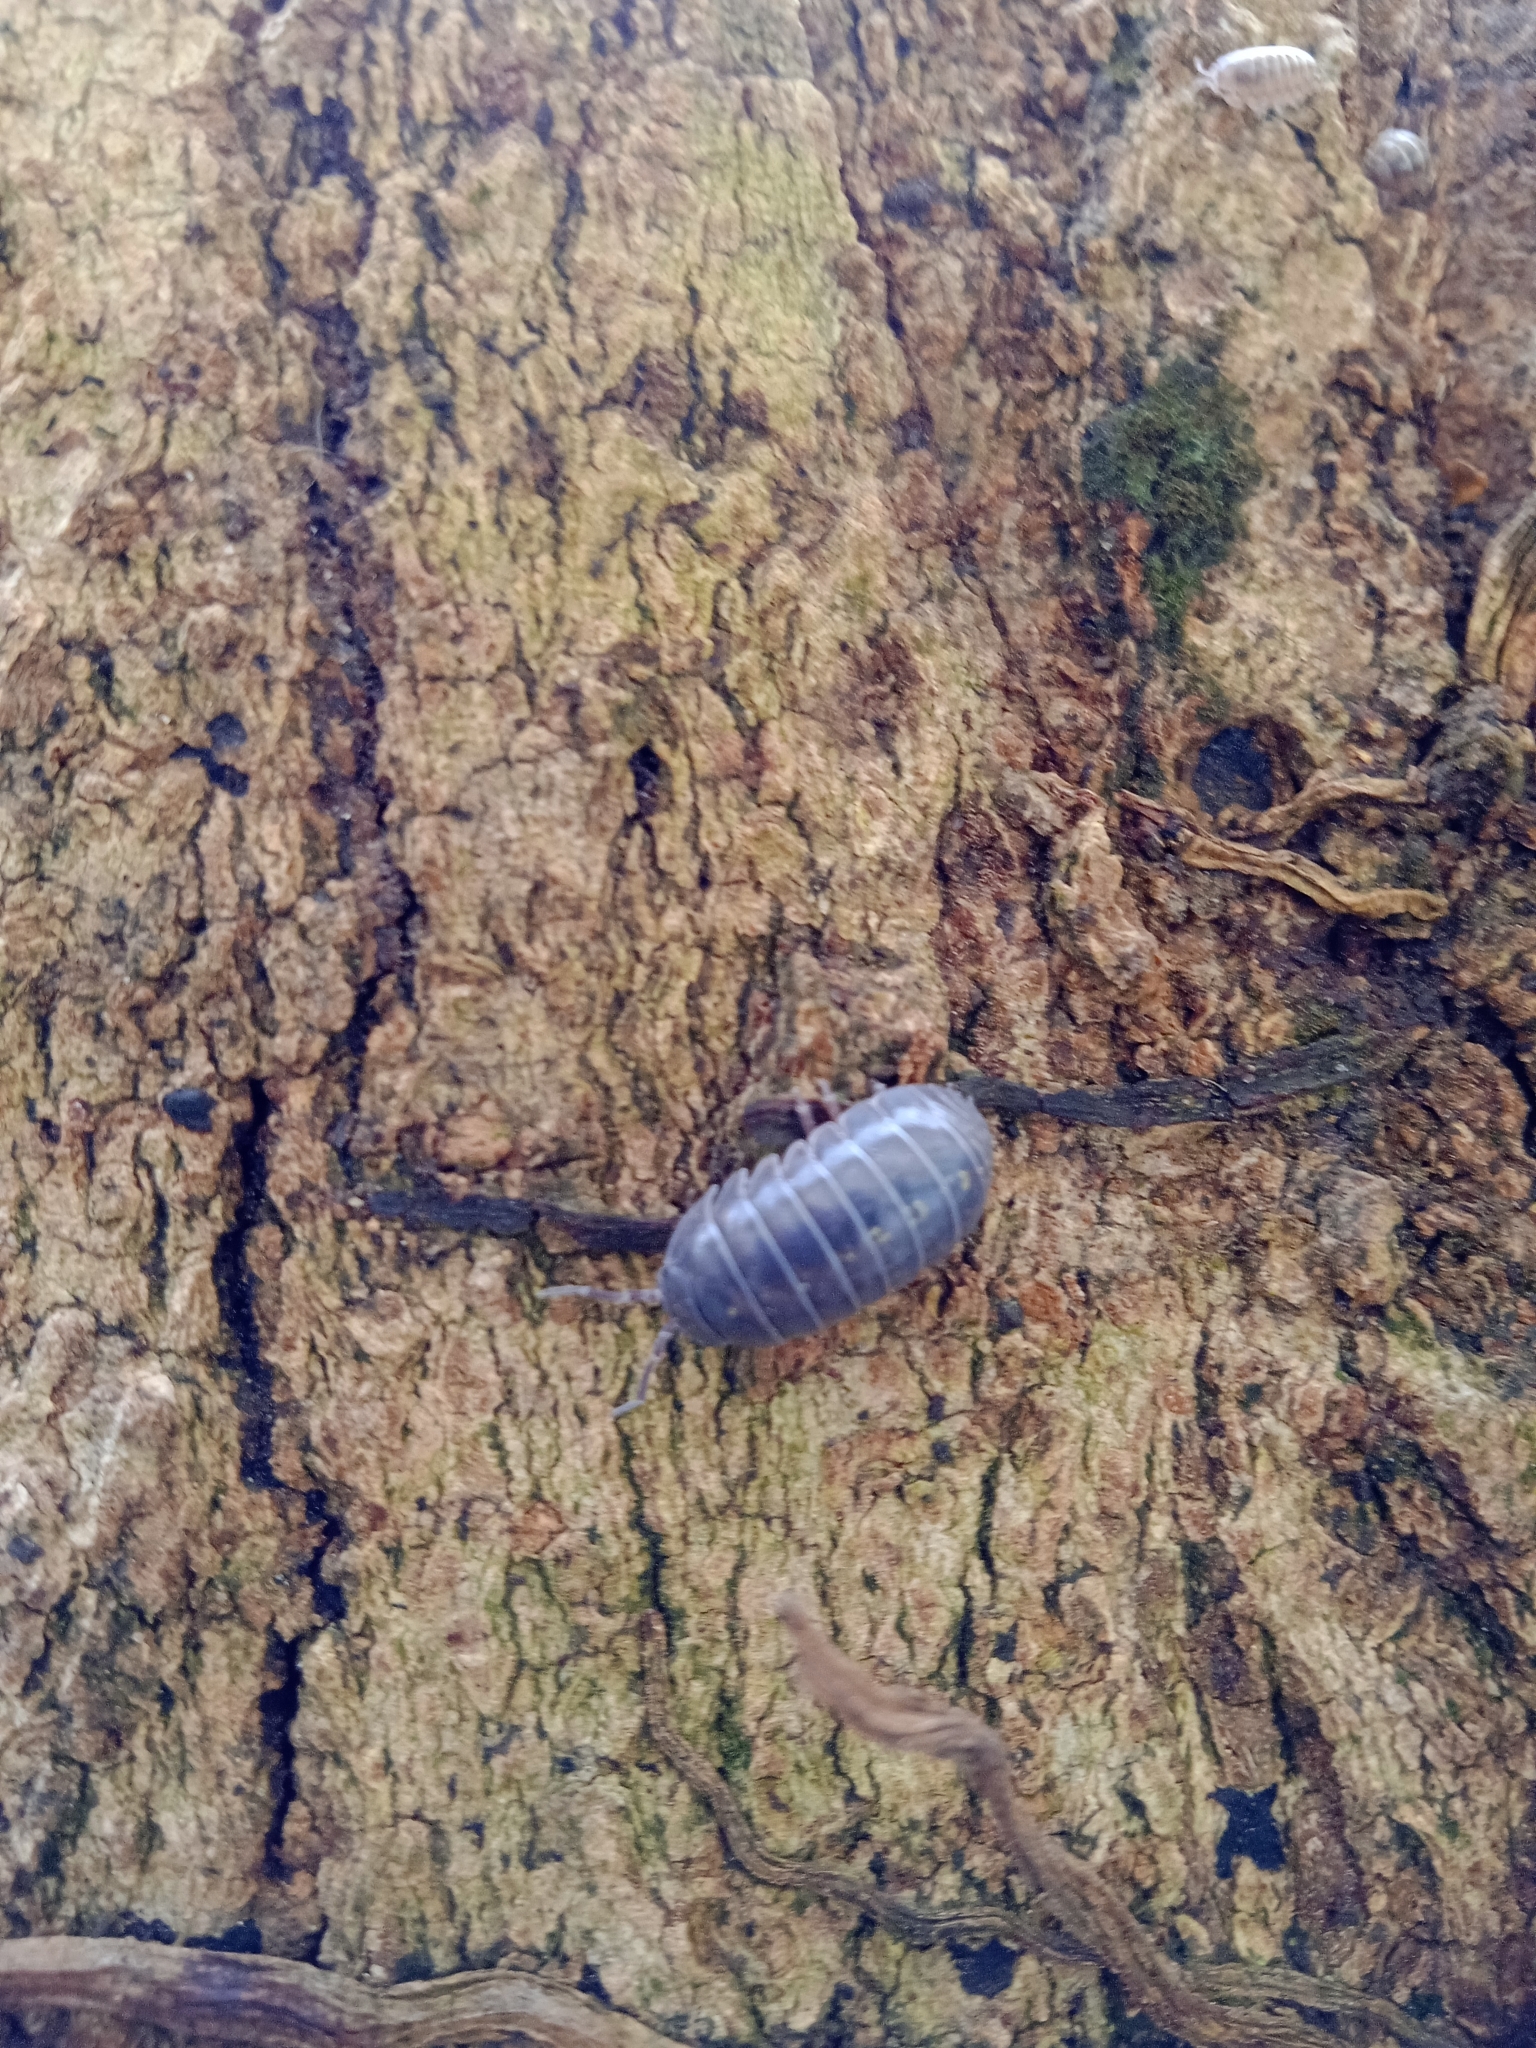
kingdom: Animalia
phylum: Arthropoda
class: Malacostraca
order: Isopoda
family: Armadillidiidae
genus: Armadillidium
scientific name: Armadillidium vulgare
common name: Common pill woodlouse
